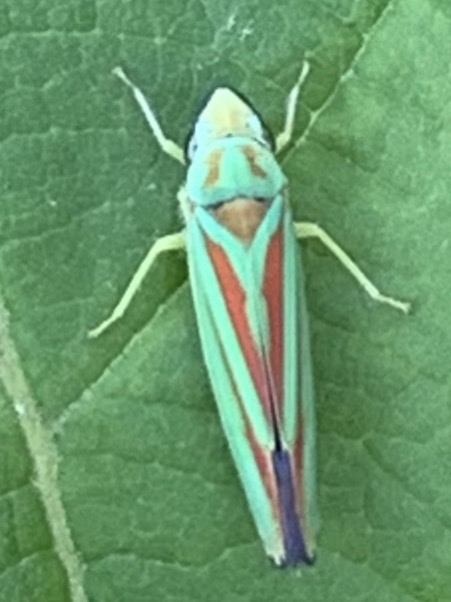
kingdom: Animalia
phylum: Arthropoda
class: Insecta
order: Hemiptera
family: Cicadellidae
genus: Graphocephala
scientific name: Graphocephala fennahi
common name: Rhododendron leafhopper
